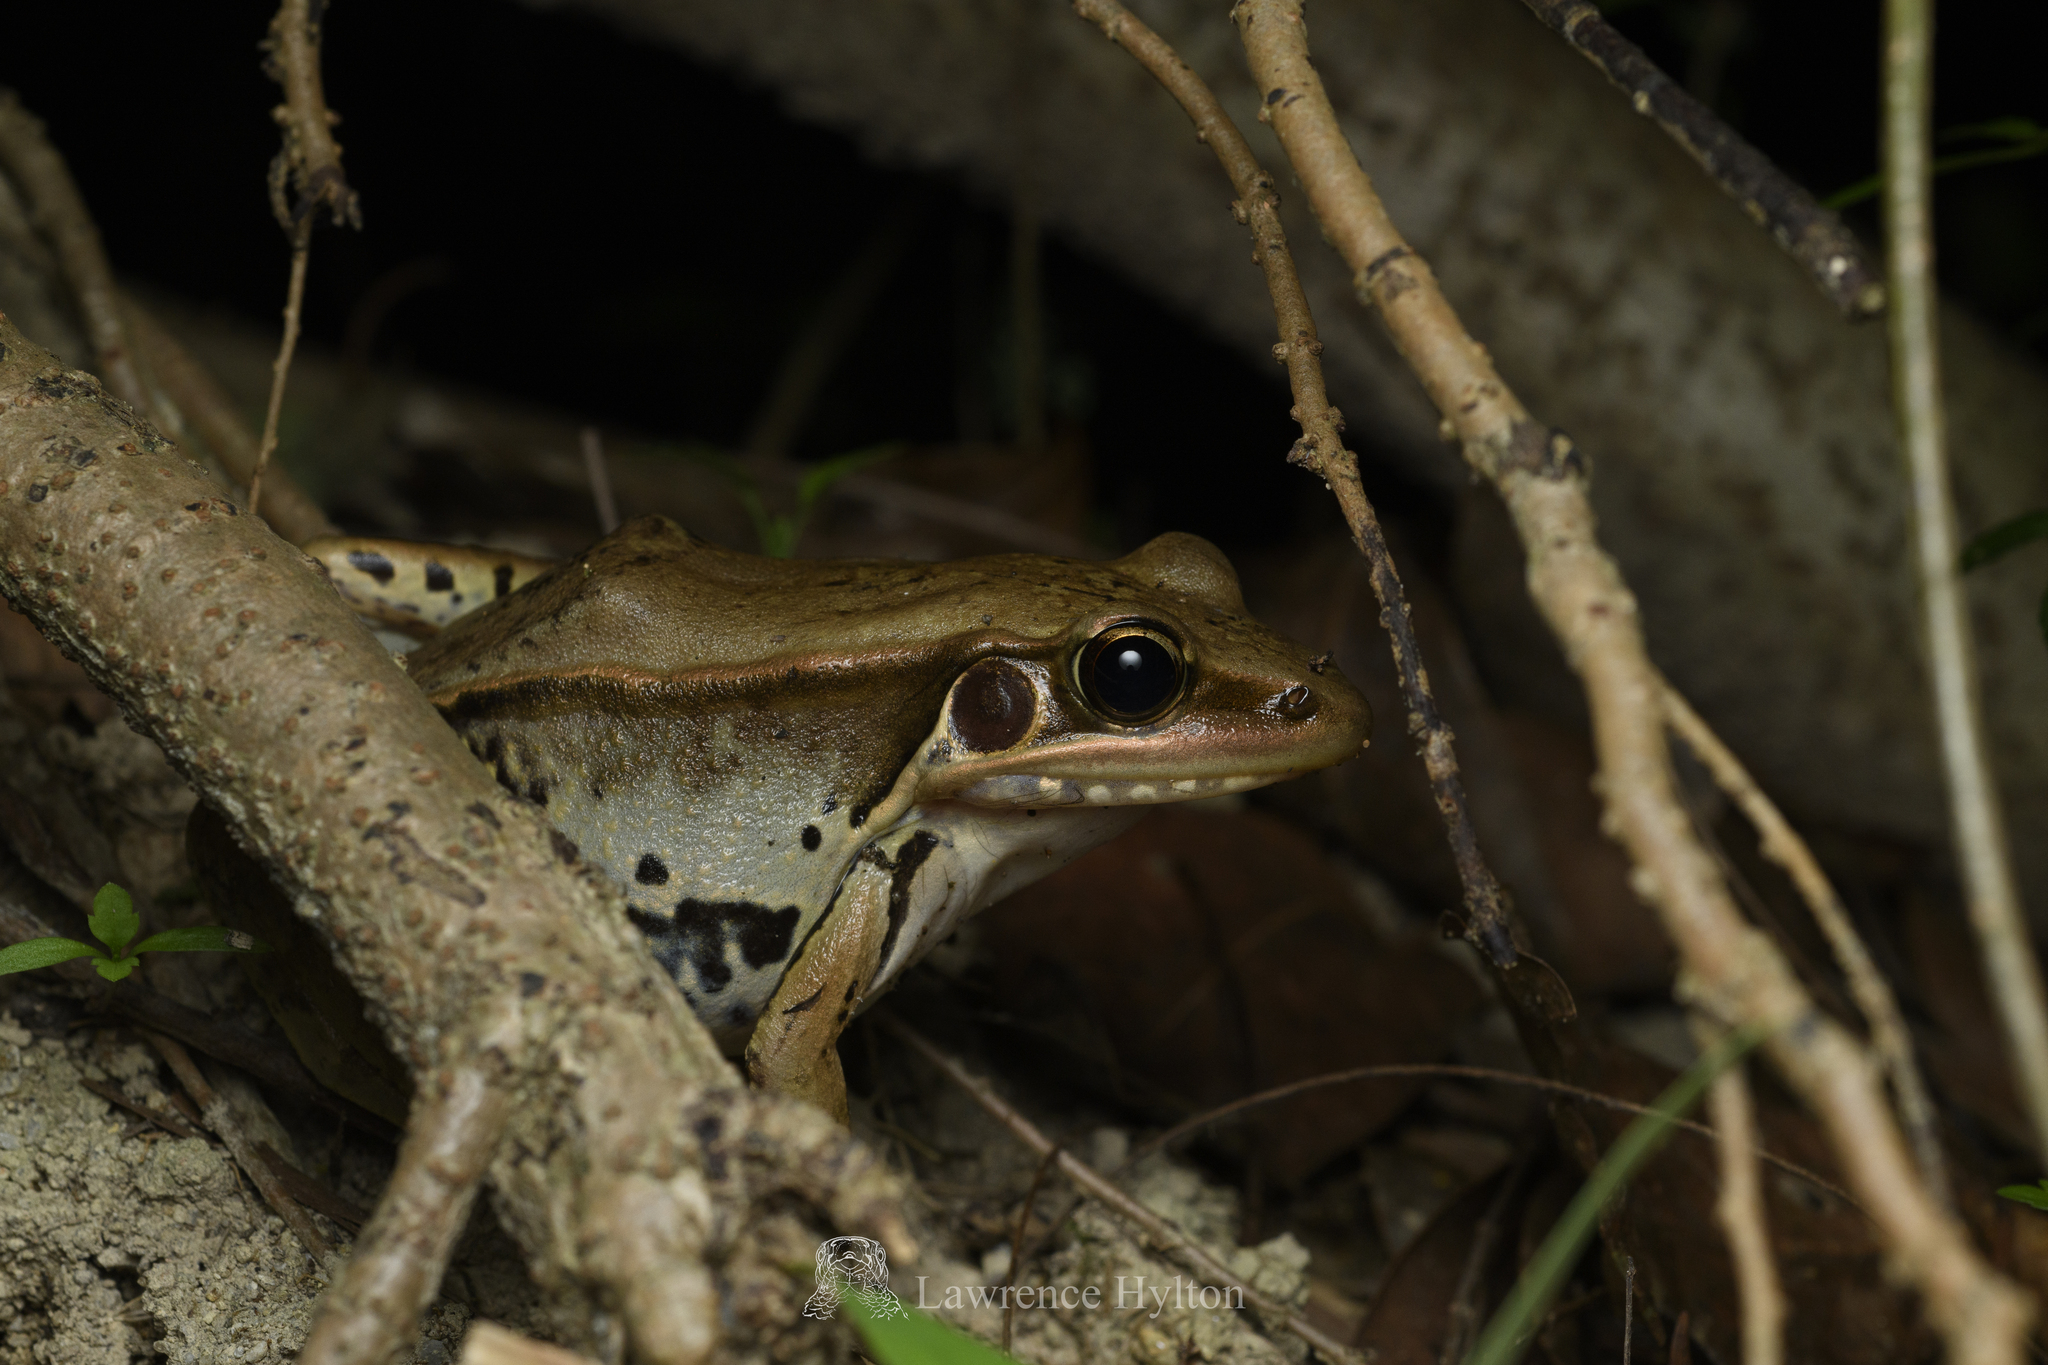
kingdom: Animalia
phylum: Chordata
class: Amphibia
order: Anura
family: Ranidae
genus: Sylvirana
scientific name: Sylvirana guentheri
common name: Guenther's amoy frog
